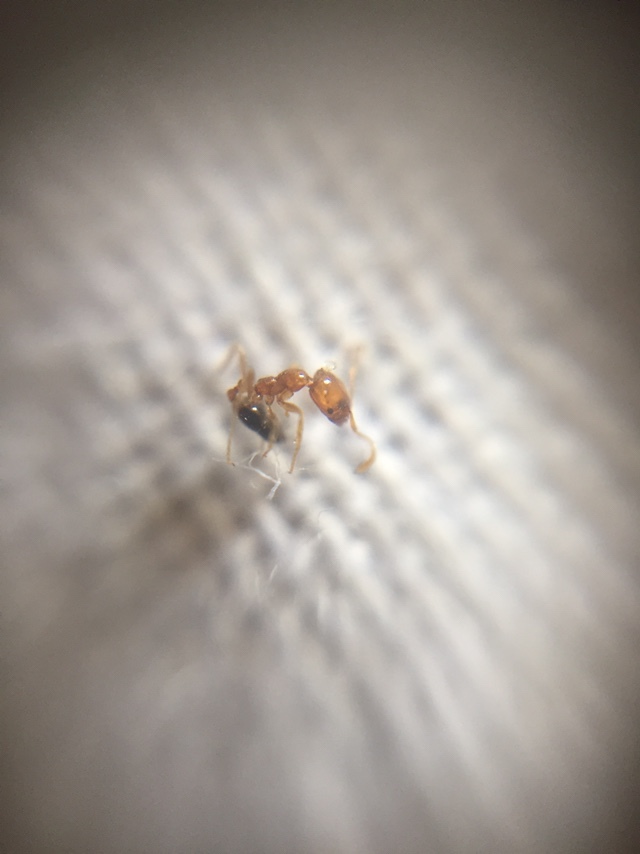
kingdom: Animalia
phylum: Arthropoda
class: Insecta
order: Hymenoptera
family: Formicidae
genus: Monomorium
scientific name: Monomorium destructor
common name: Destructive trailing ant
